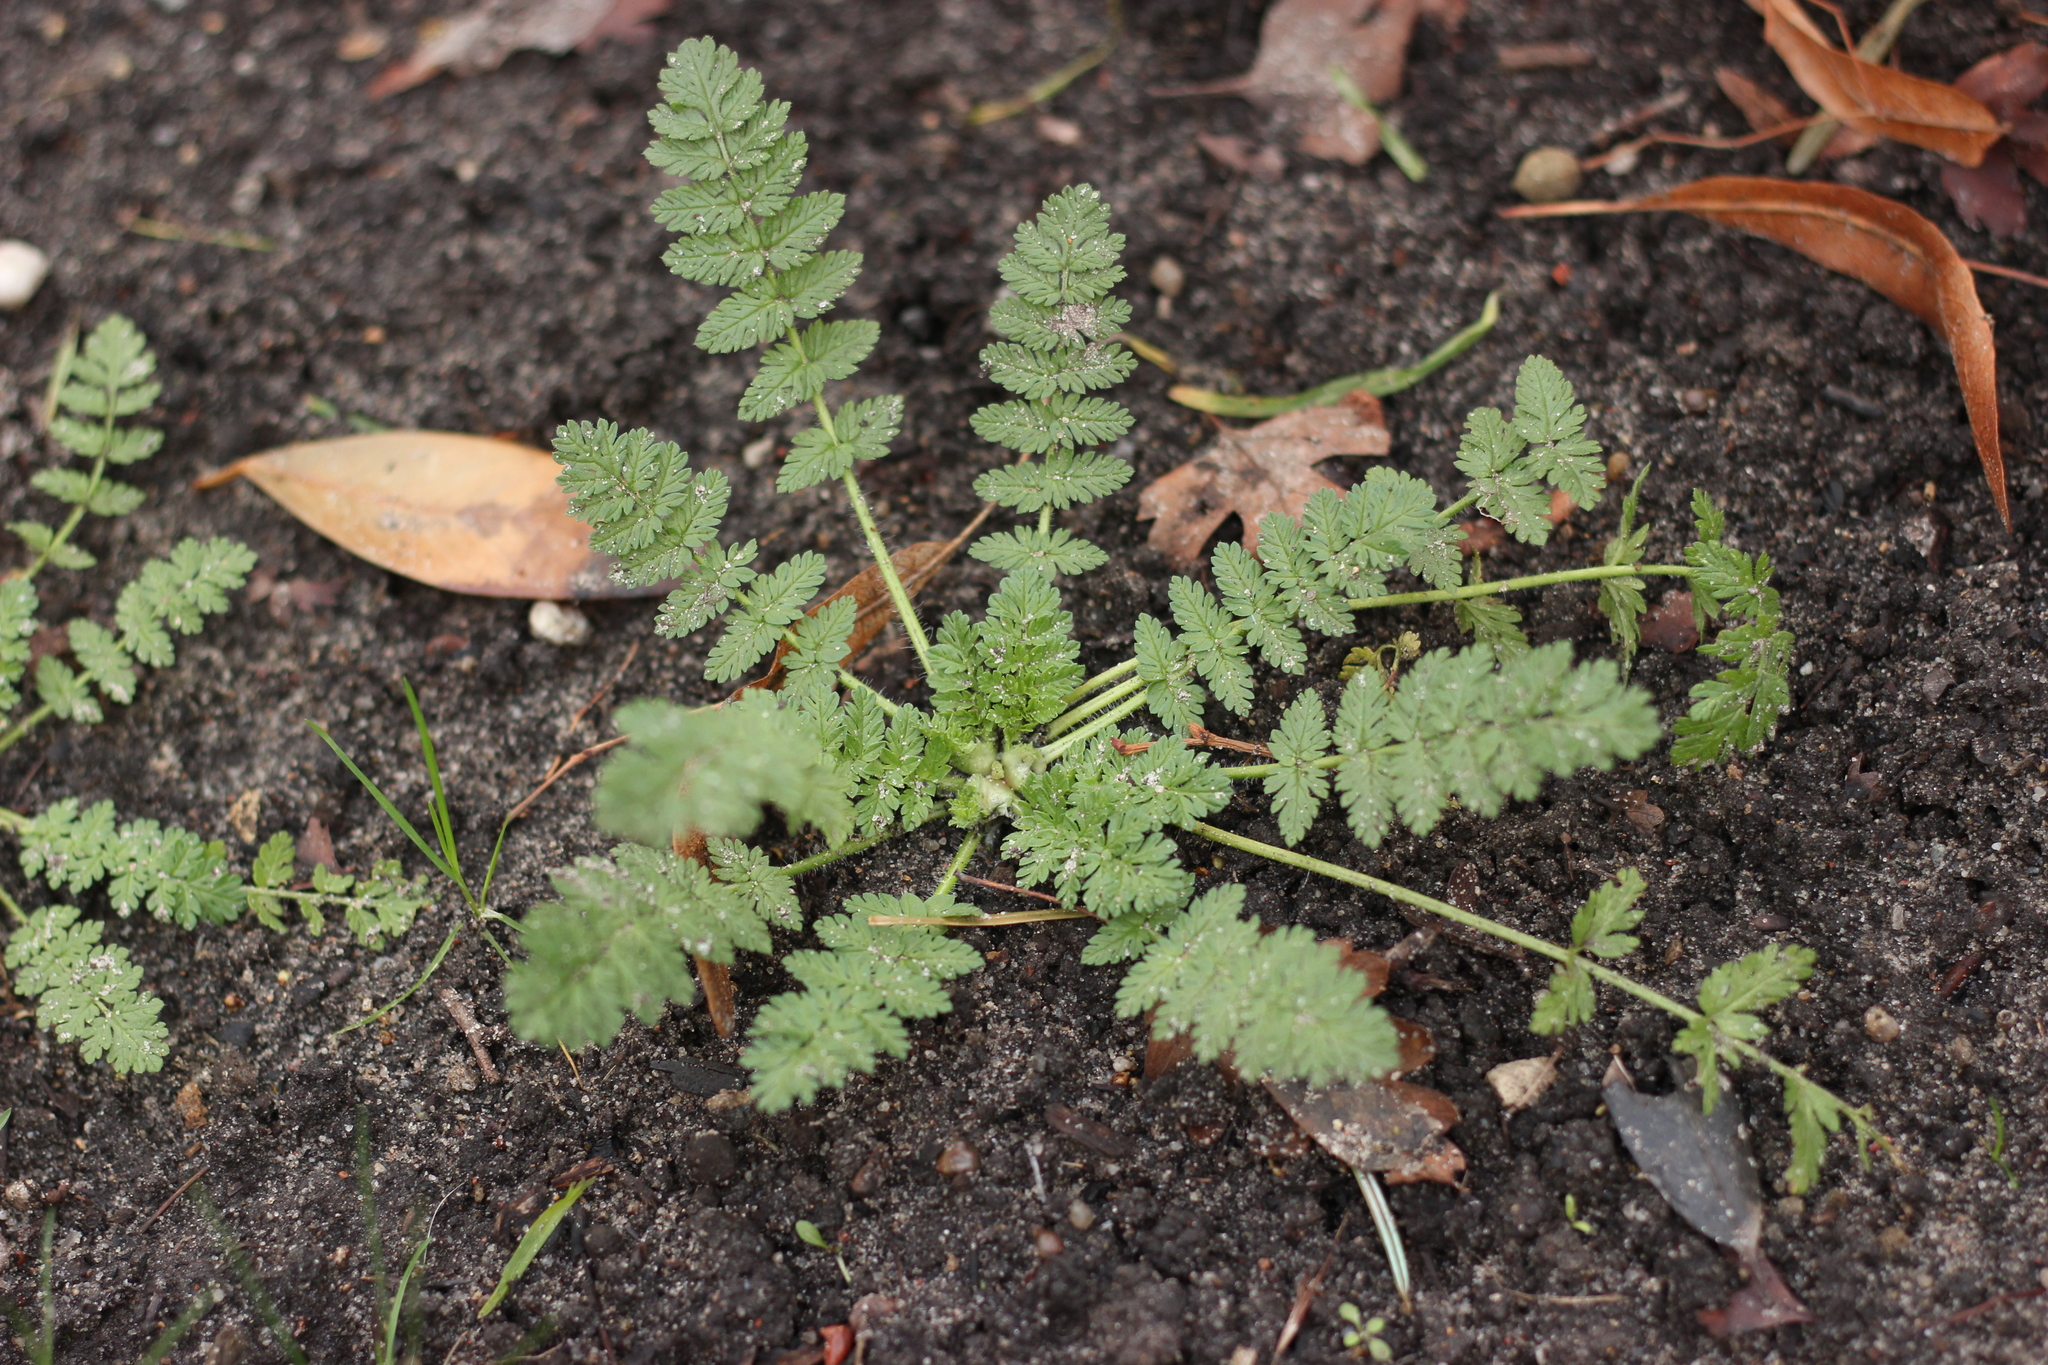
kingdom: Plantae
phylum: Tracheophyta
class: Magnoliopsida
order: Geraniales
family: Geraniaceae
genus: Erodium
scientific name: Erodium cicutarium
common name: Common stork's-bill
